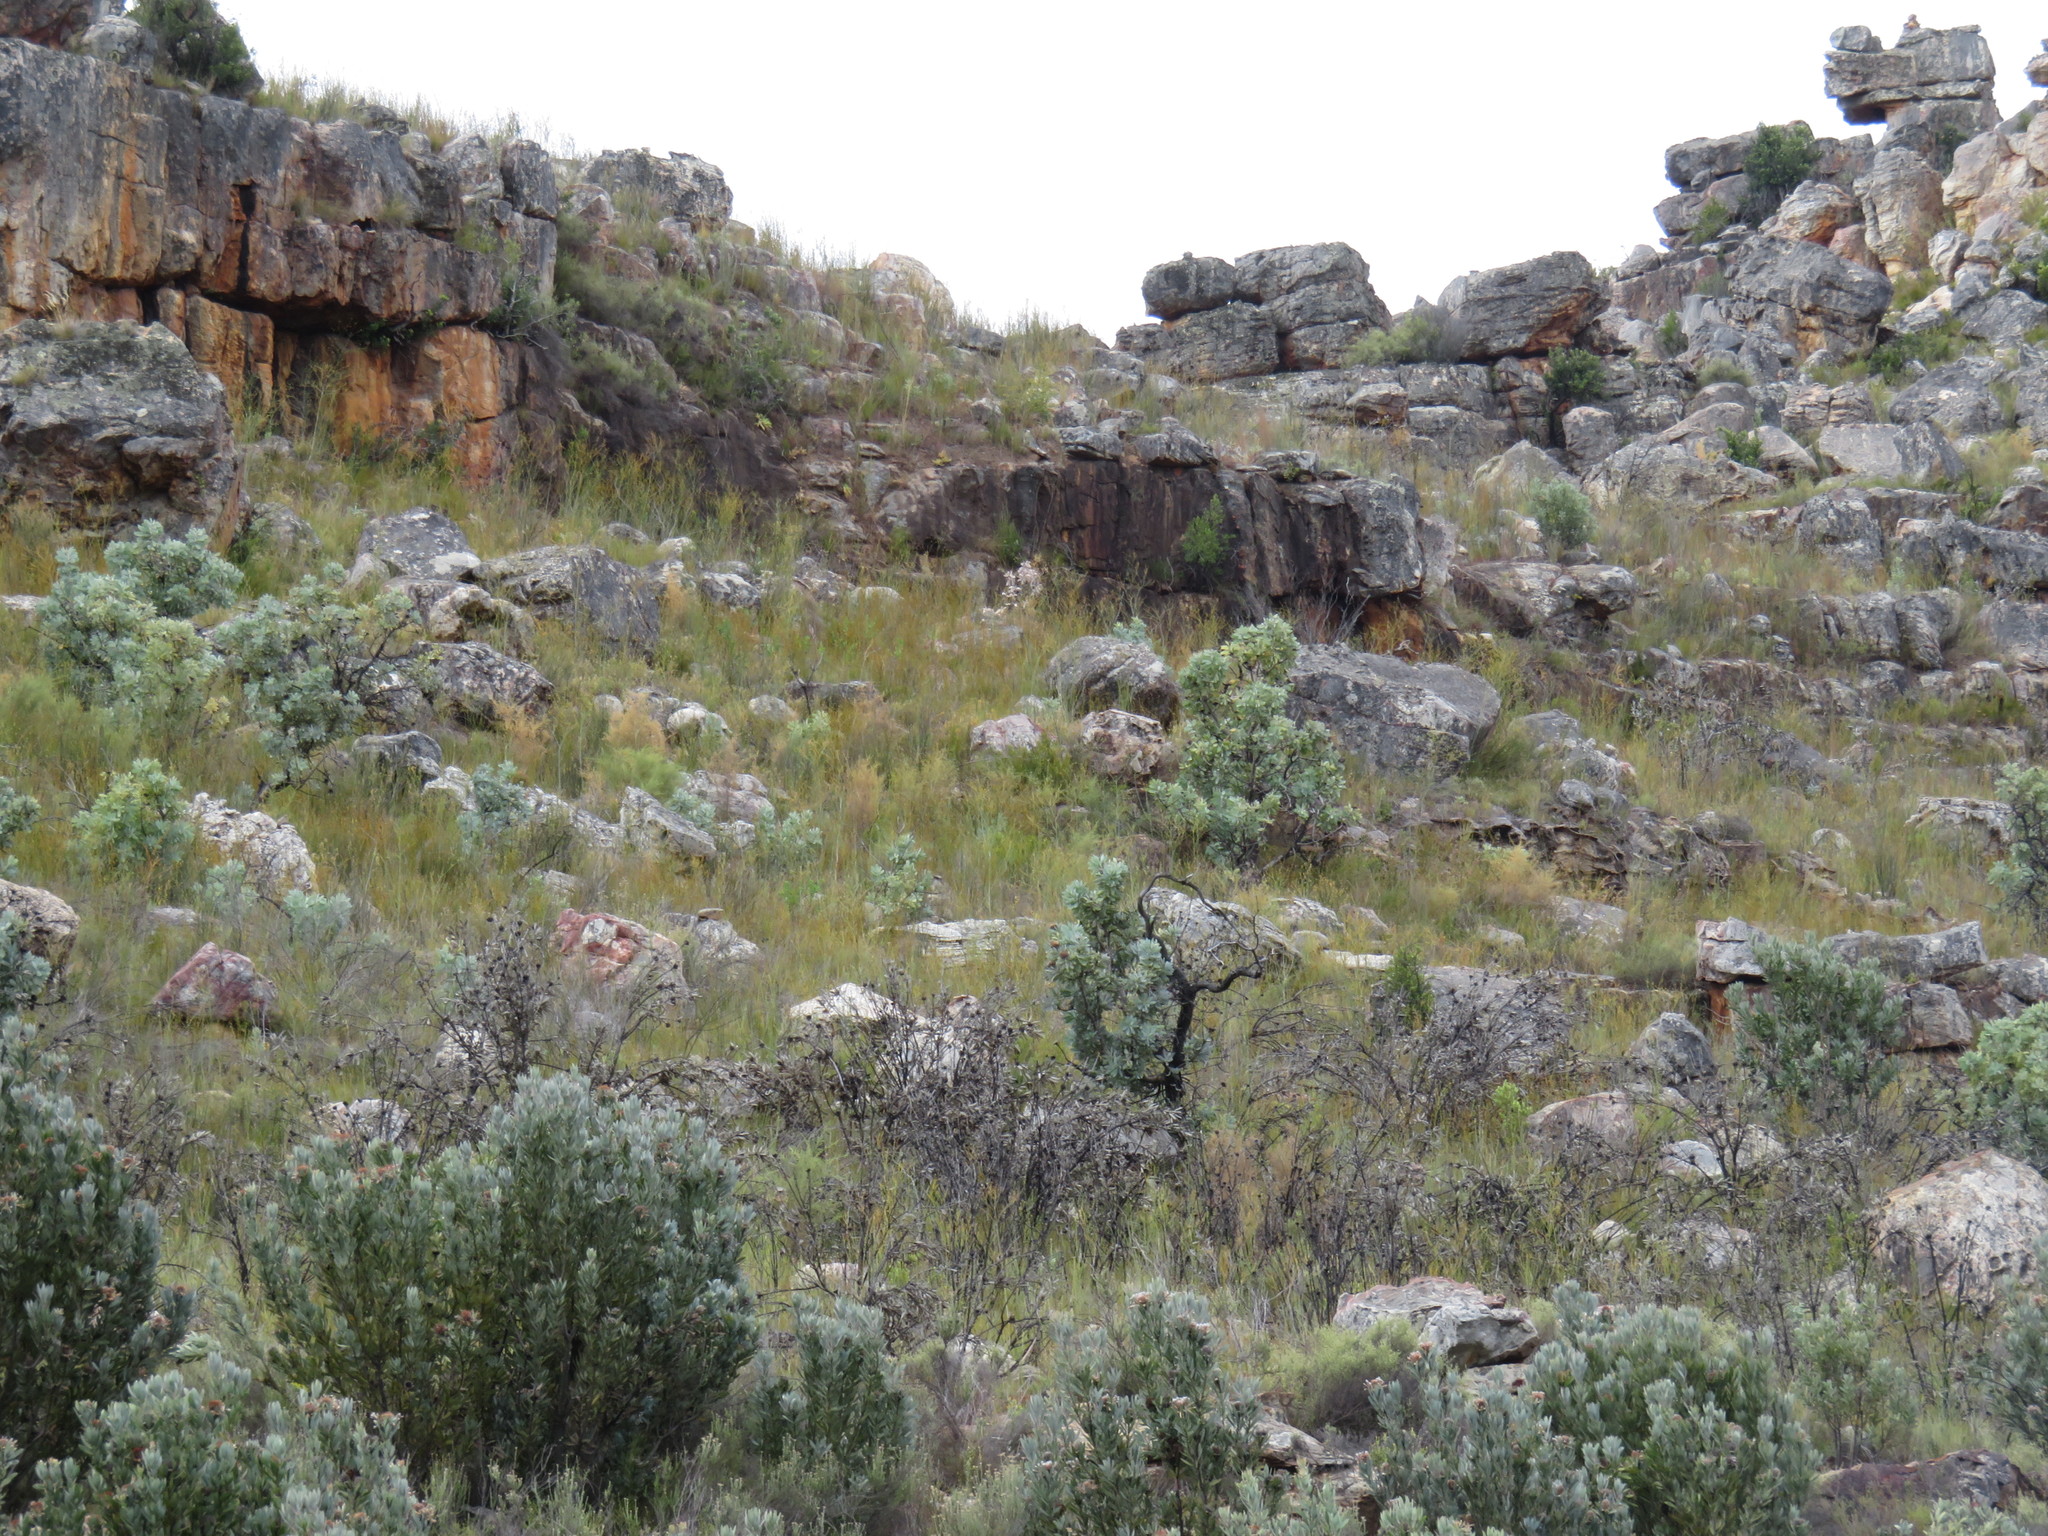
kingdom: Plantae
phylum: Tracheophyta
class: Magnoliopsida
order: Proteales
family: Proteaceae
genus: Protea
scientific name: Protea nitida
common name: Tree protea
